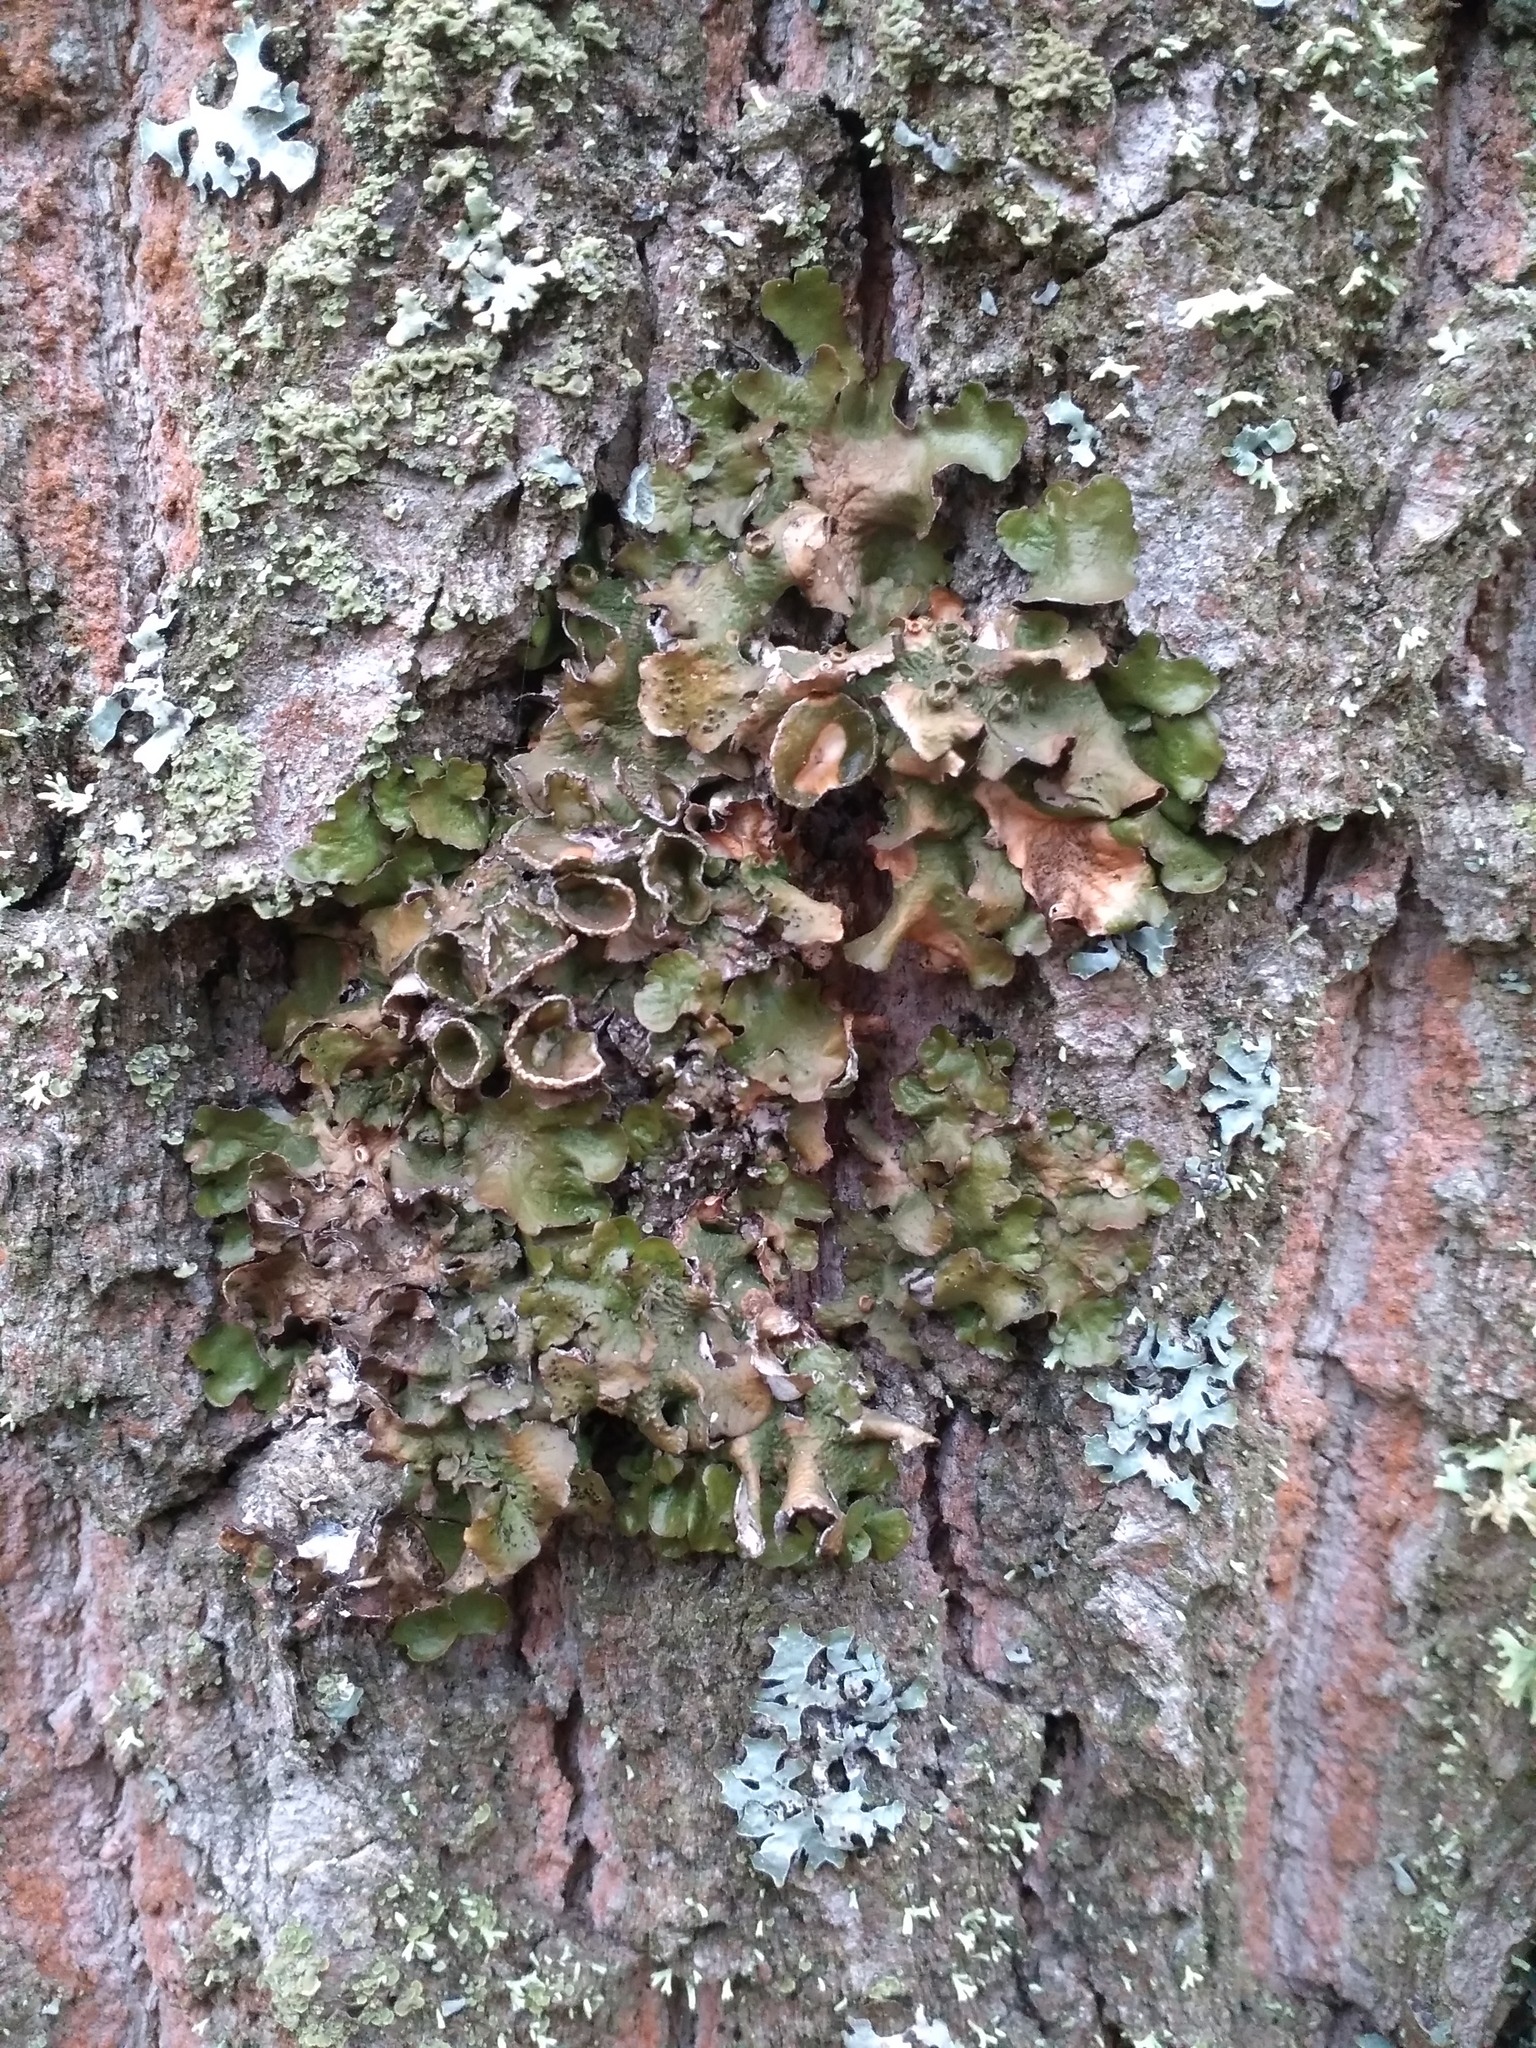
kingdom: Fungi
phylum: Ascomycota
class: Lecanoromycetes
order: Lecanorales
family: Parmeliaceae
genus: Pleurosticta
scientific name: Pleurosticta acetabulum
